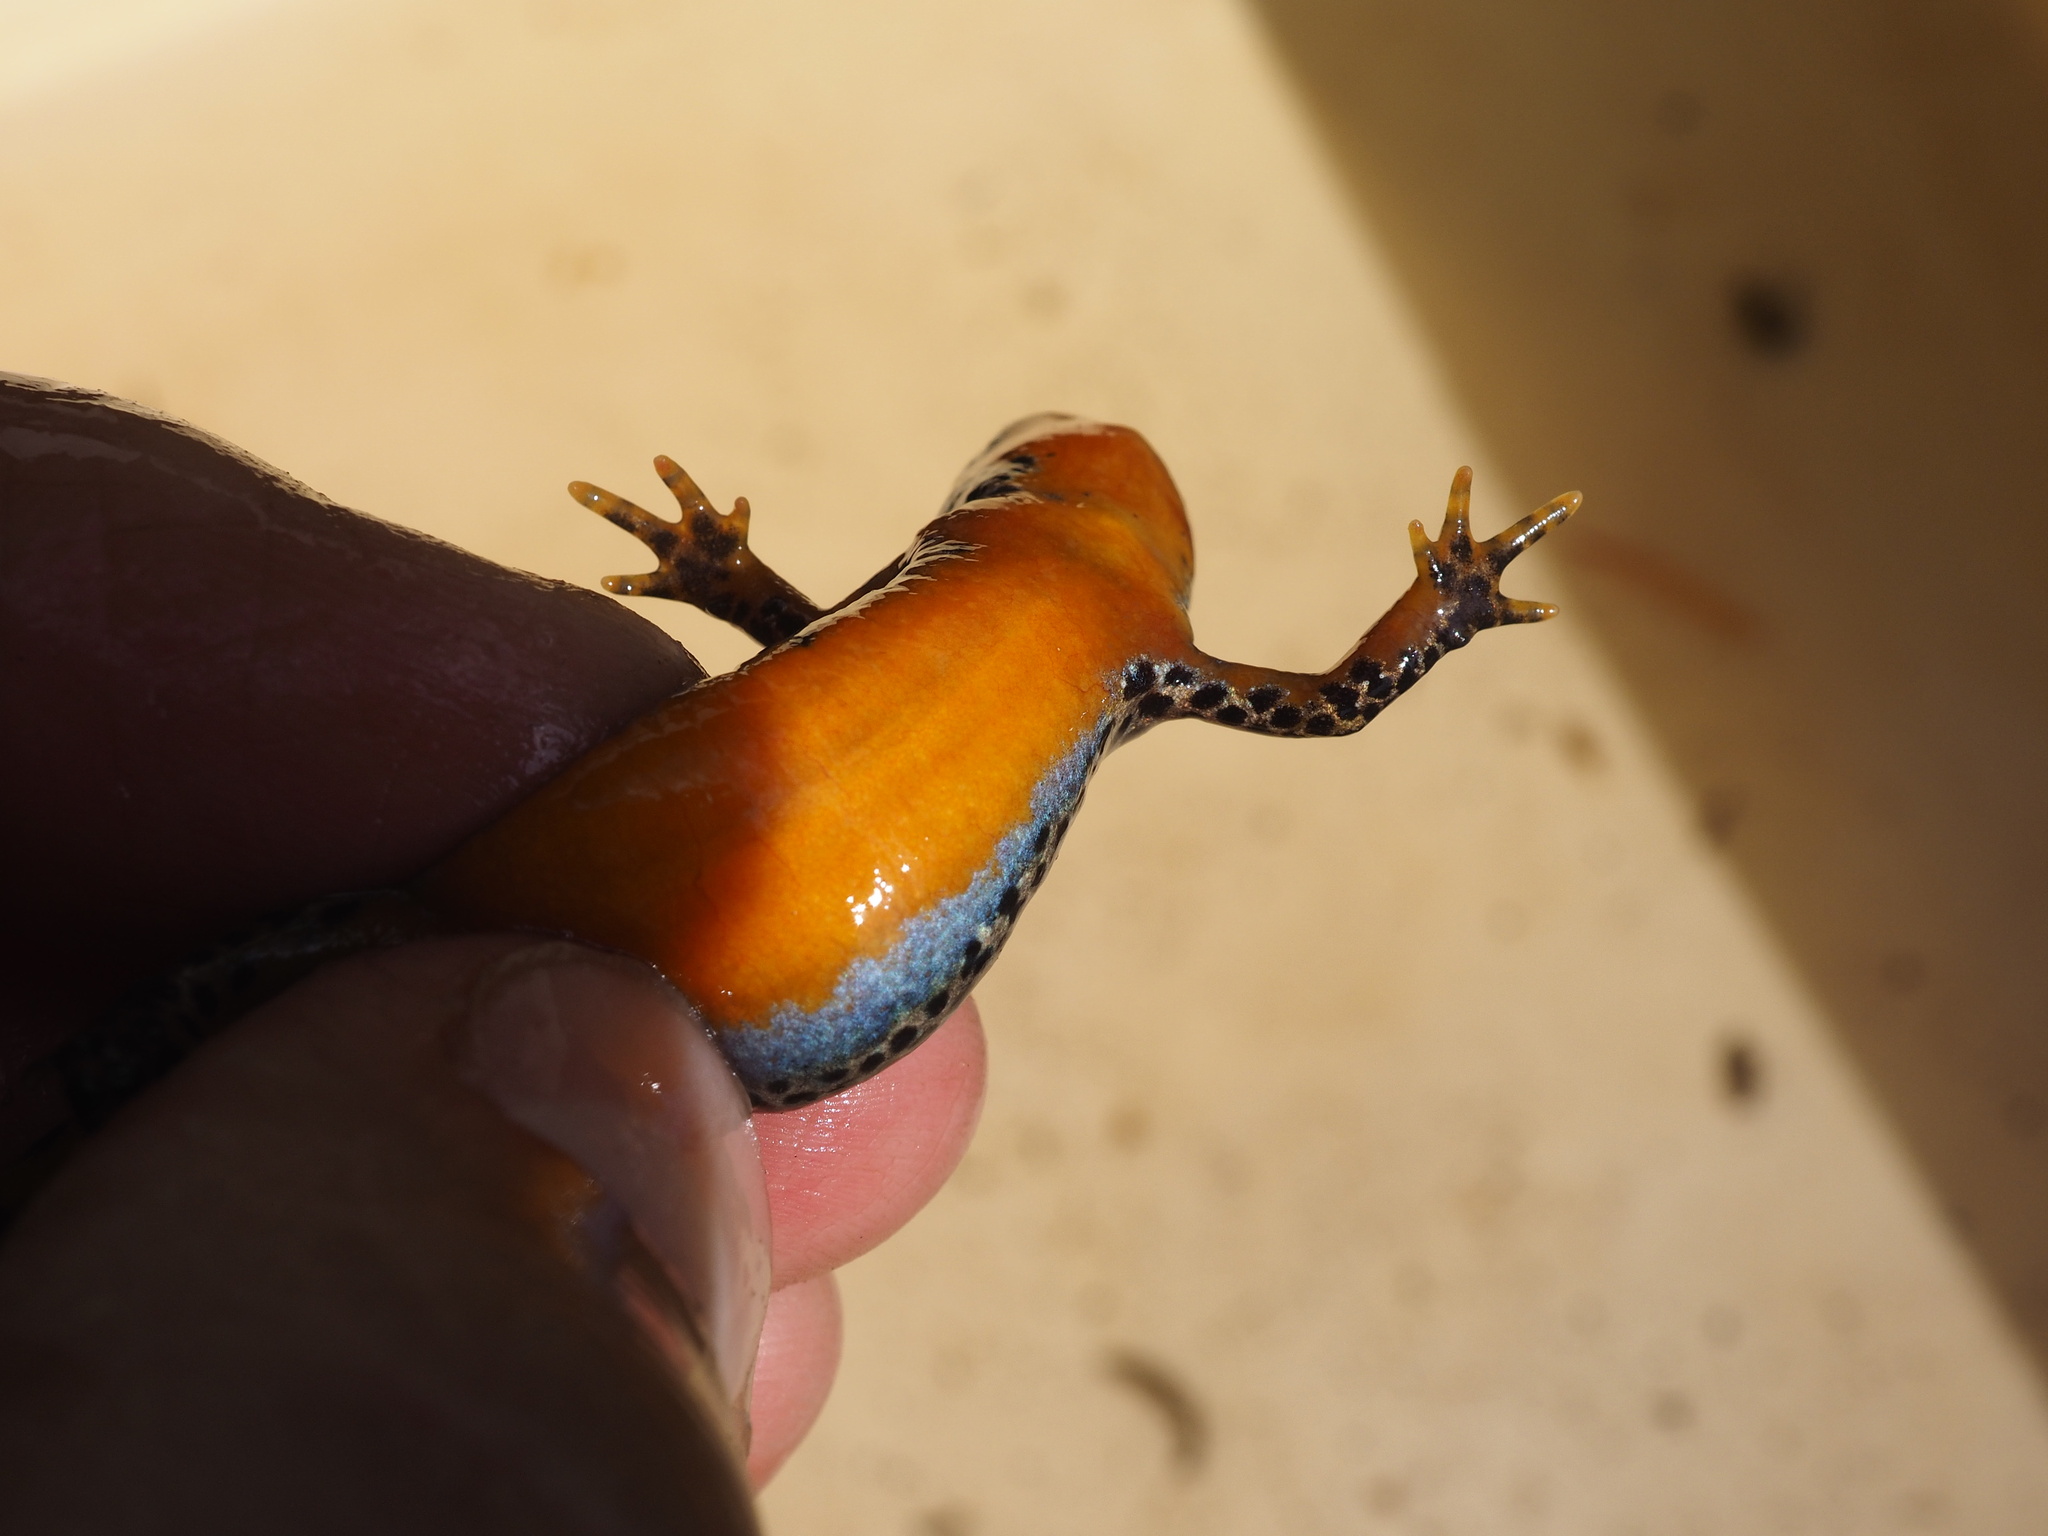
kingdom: Animalia
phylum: Chordata
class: Amphibia
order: Caudata
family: Salamandridae
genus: Ichthyosaura
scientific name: Ichthyosaura alpestris
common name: Alpine newt
